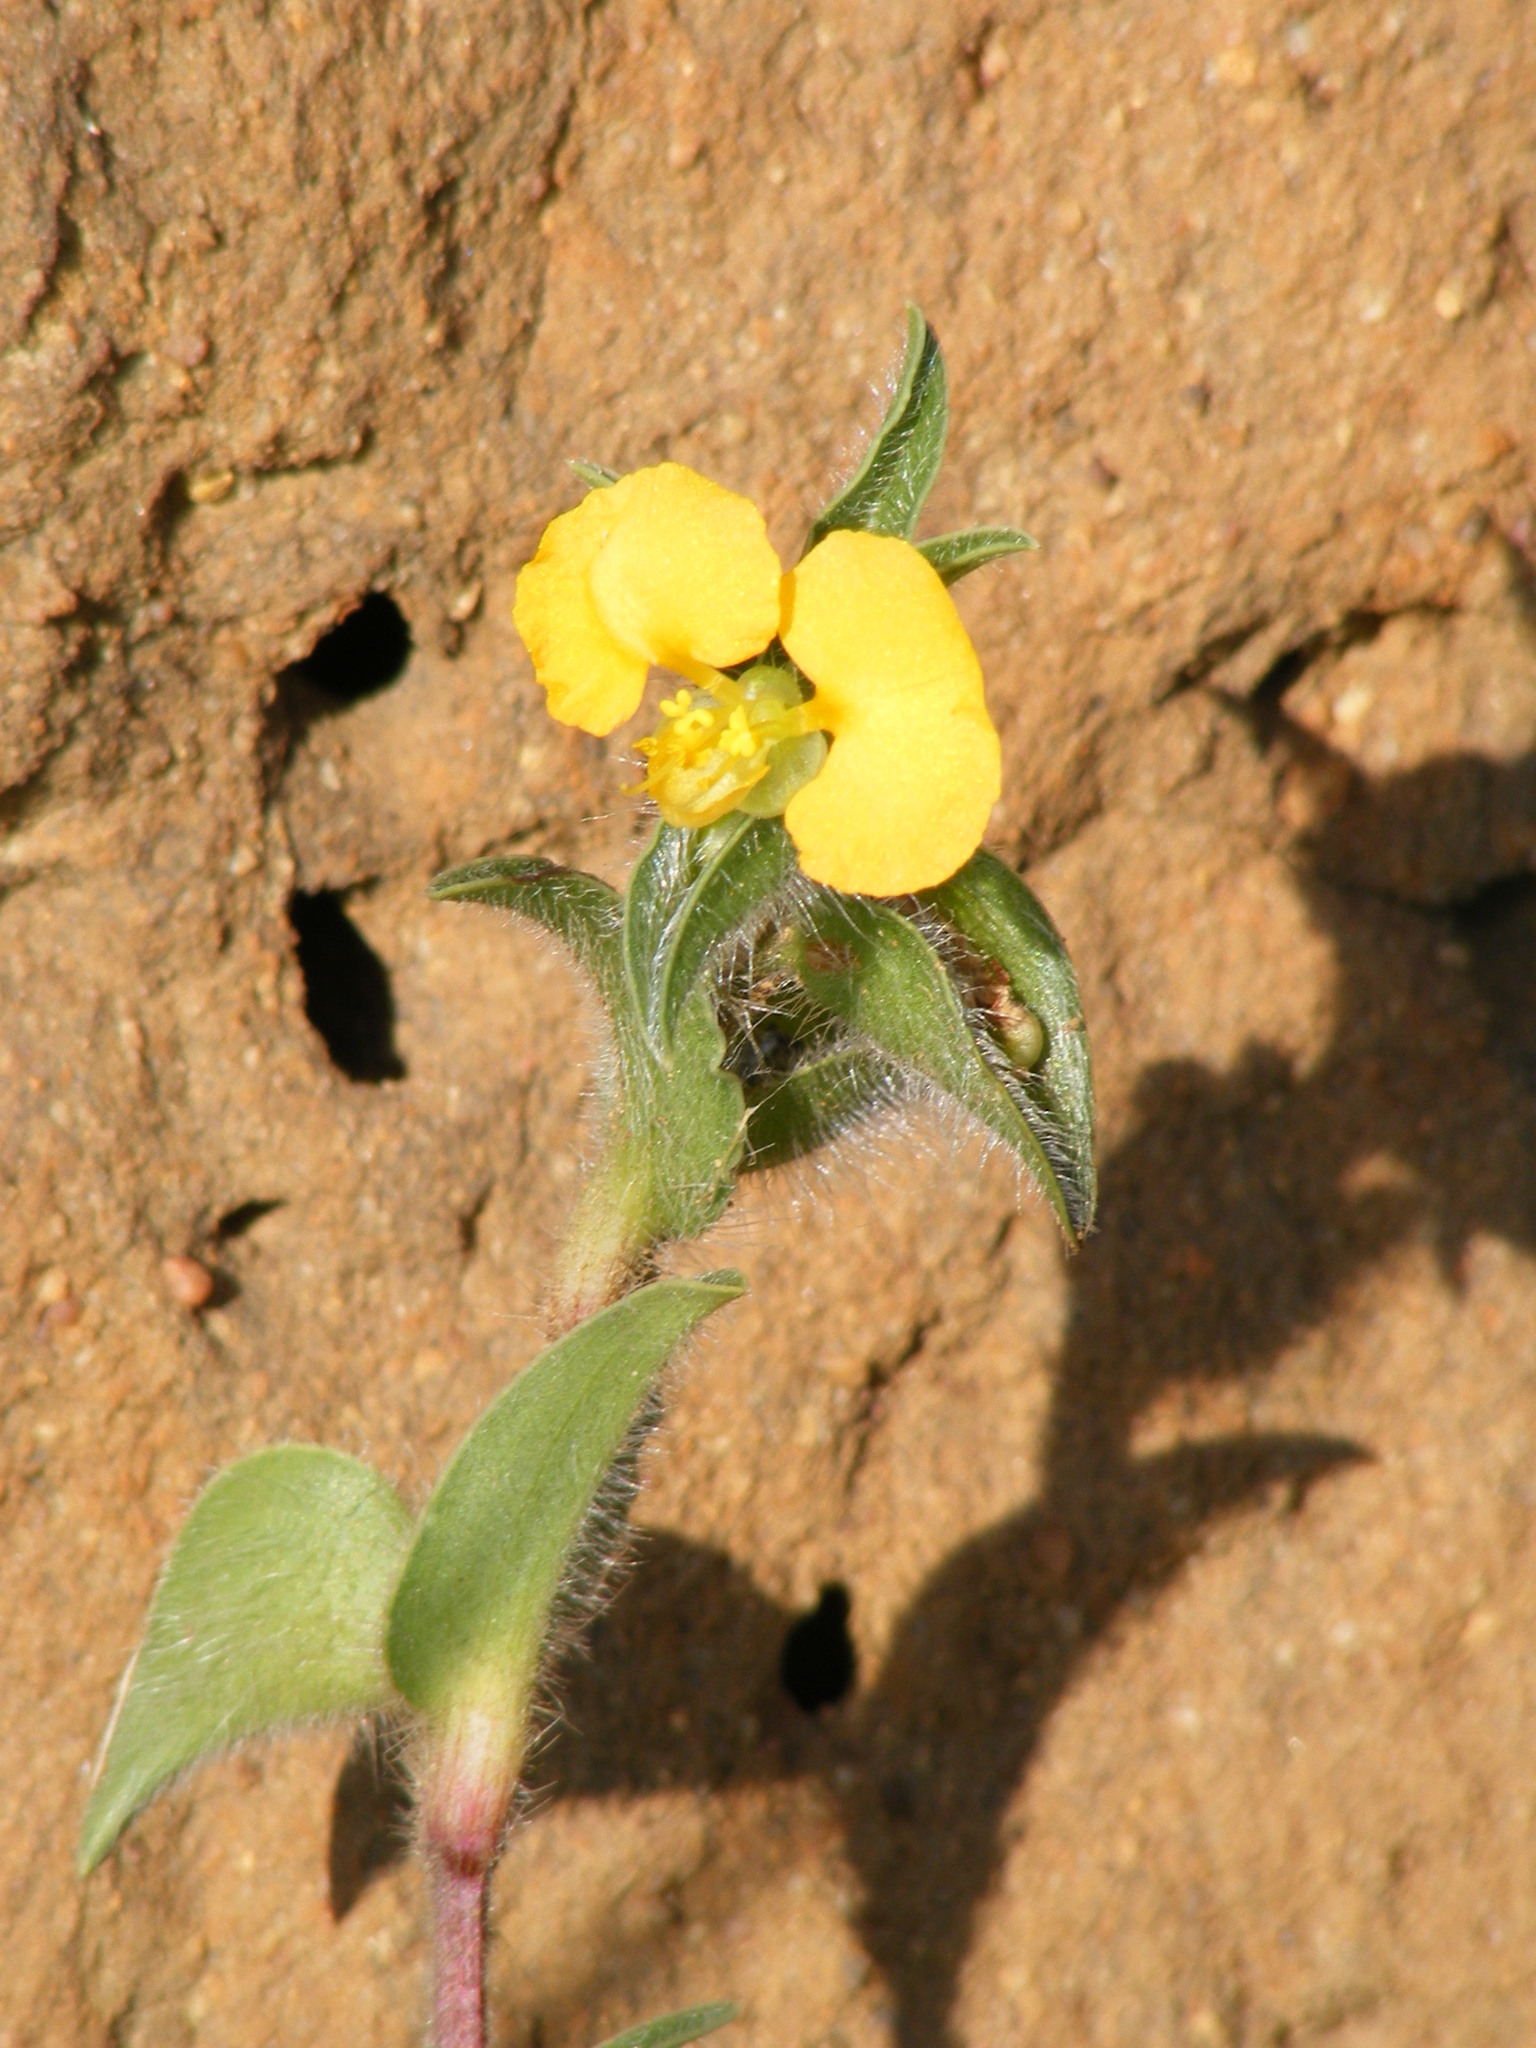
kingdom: Plantae
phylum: Tracheophyta
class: Liliopsida
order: Commelinales
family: Commelinaceae
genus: Commelina
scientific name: Commelina africana
